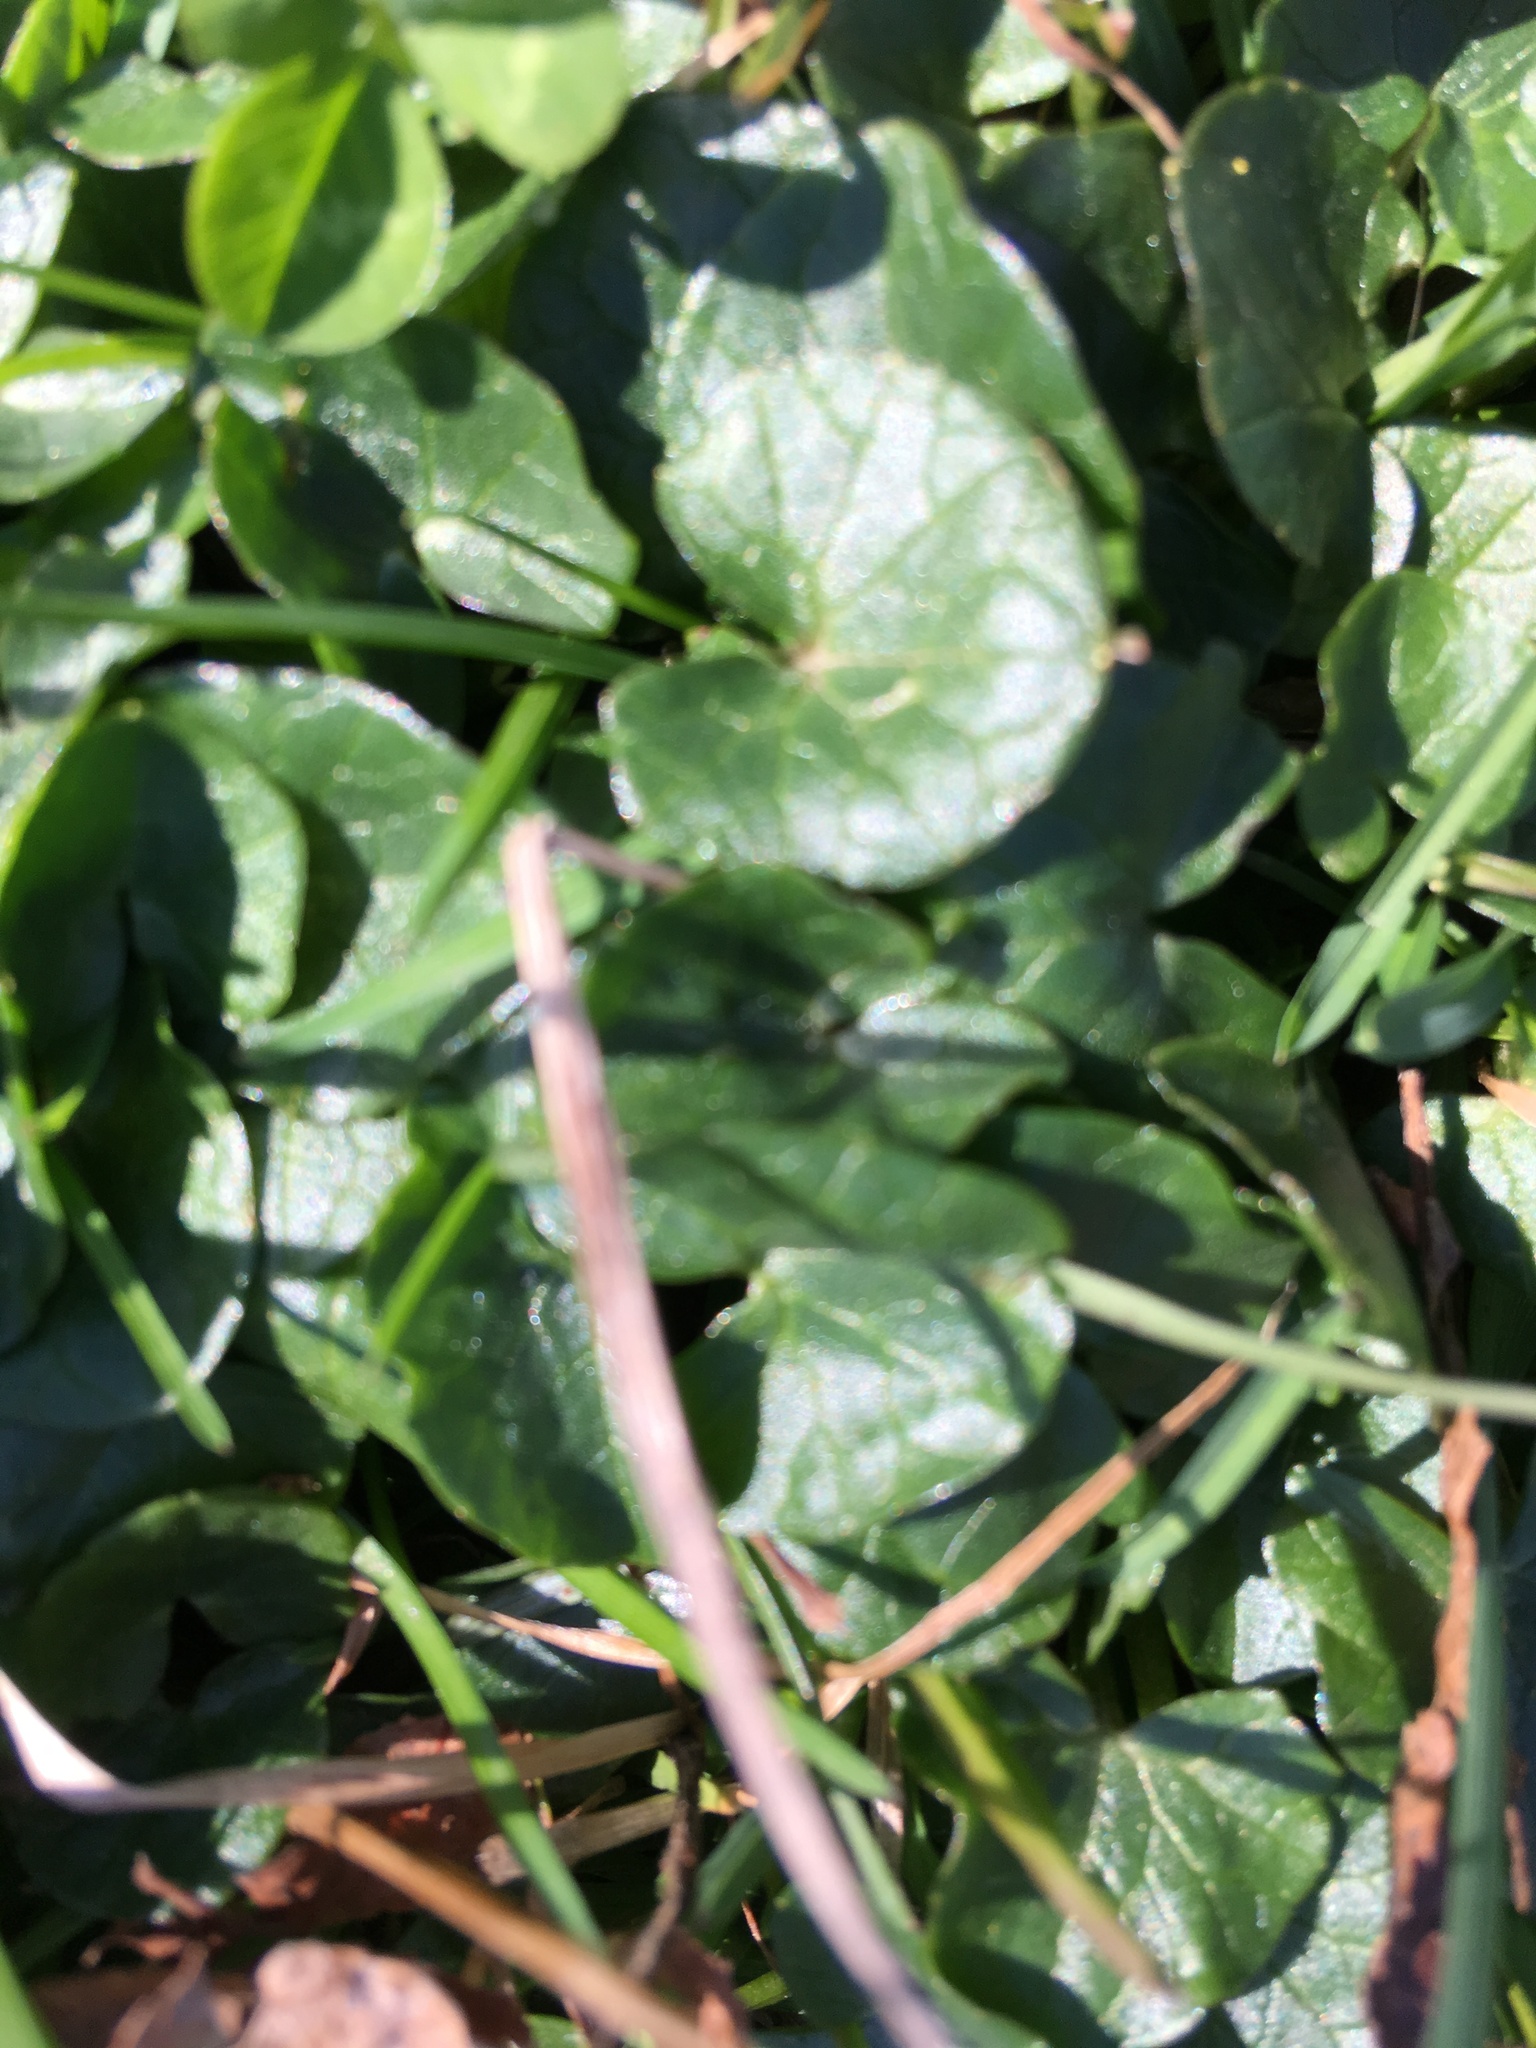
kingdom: Plantae
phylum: Tracheophyta
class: Magnoliopsida
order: Ranunculales
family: Ranunculaceae
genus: Ficaria
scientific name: Ficaria verna
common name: Lesser celandine
